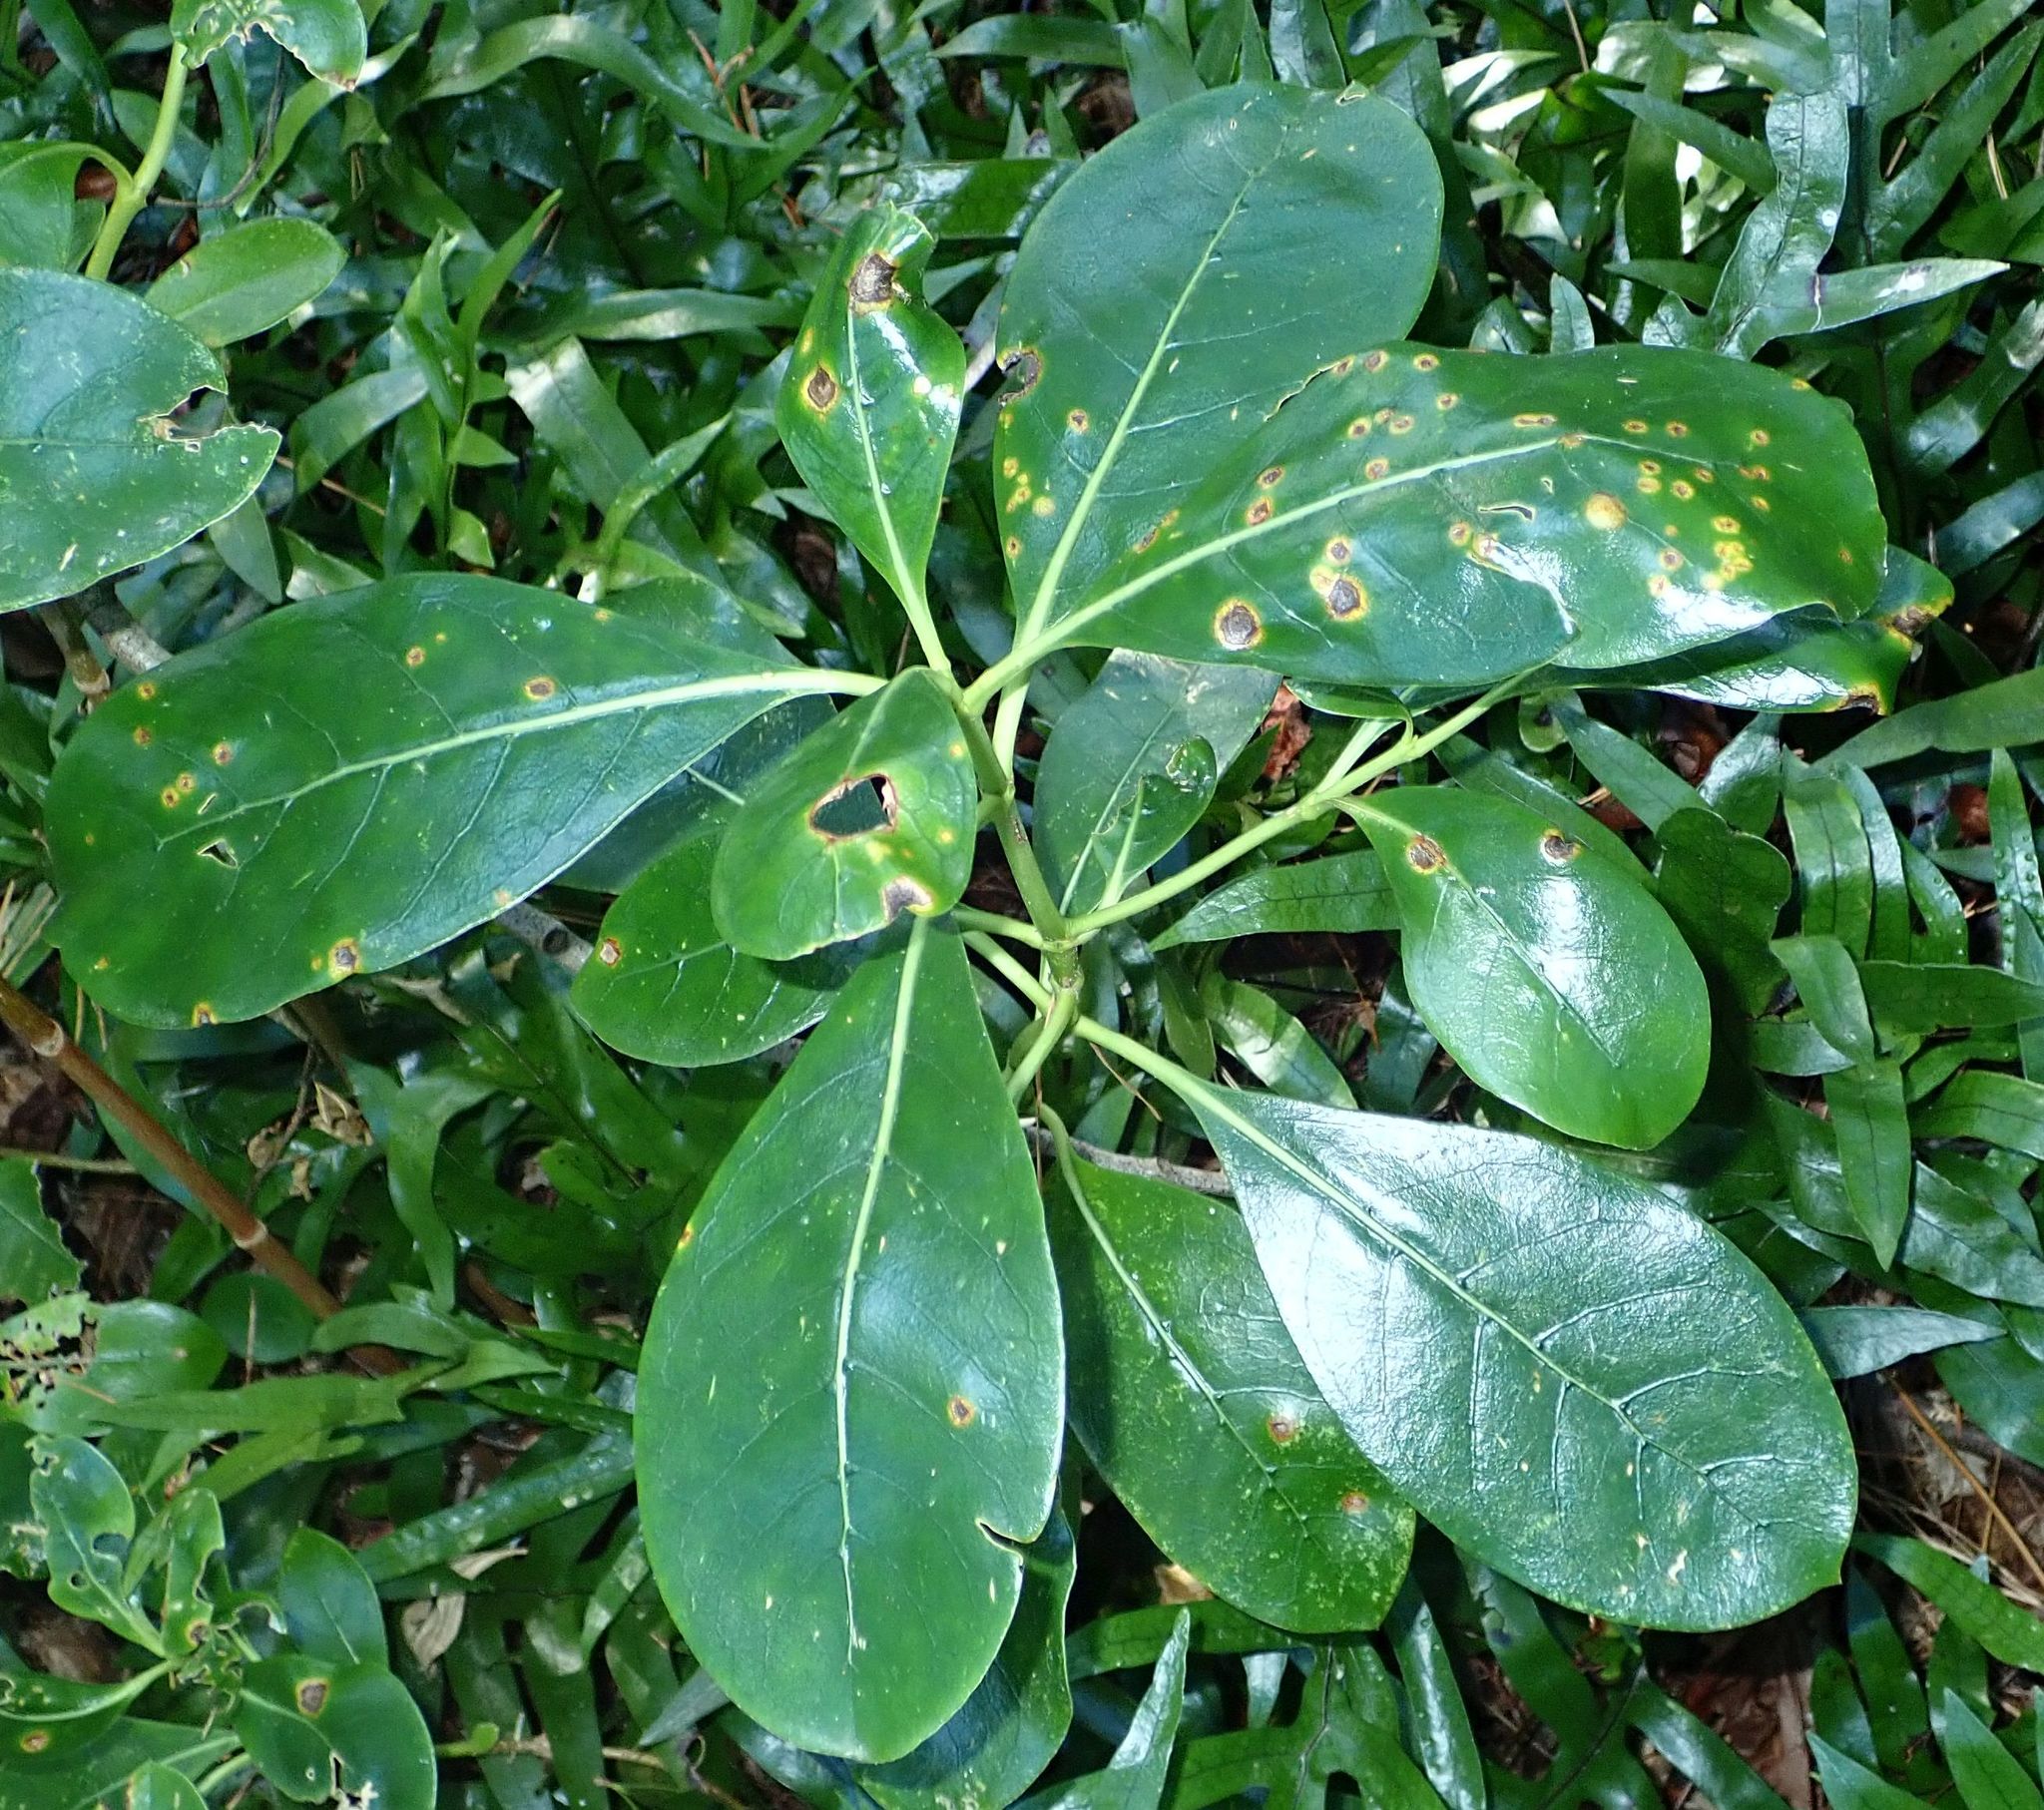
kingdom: Plantae
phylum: Tracheophyta
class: Magnoliopsida
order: Gentianales
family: Rubiaceae
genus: Coprosma
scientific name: Coprosma lucida
